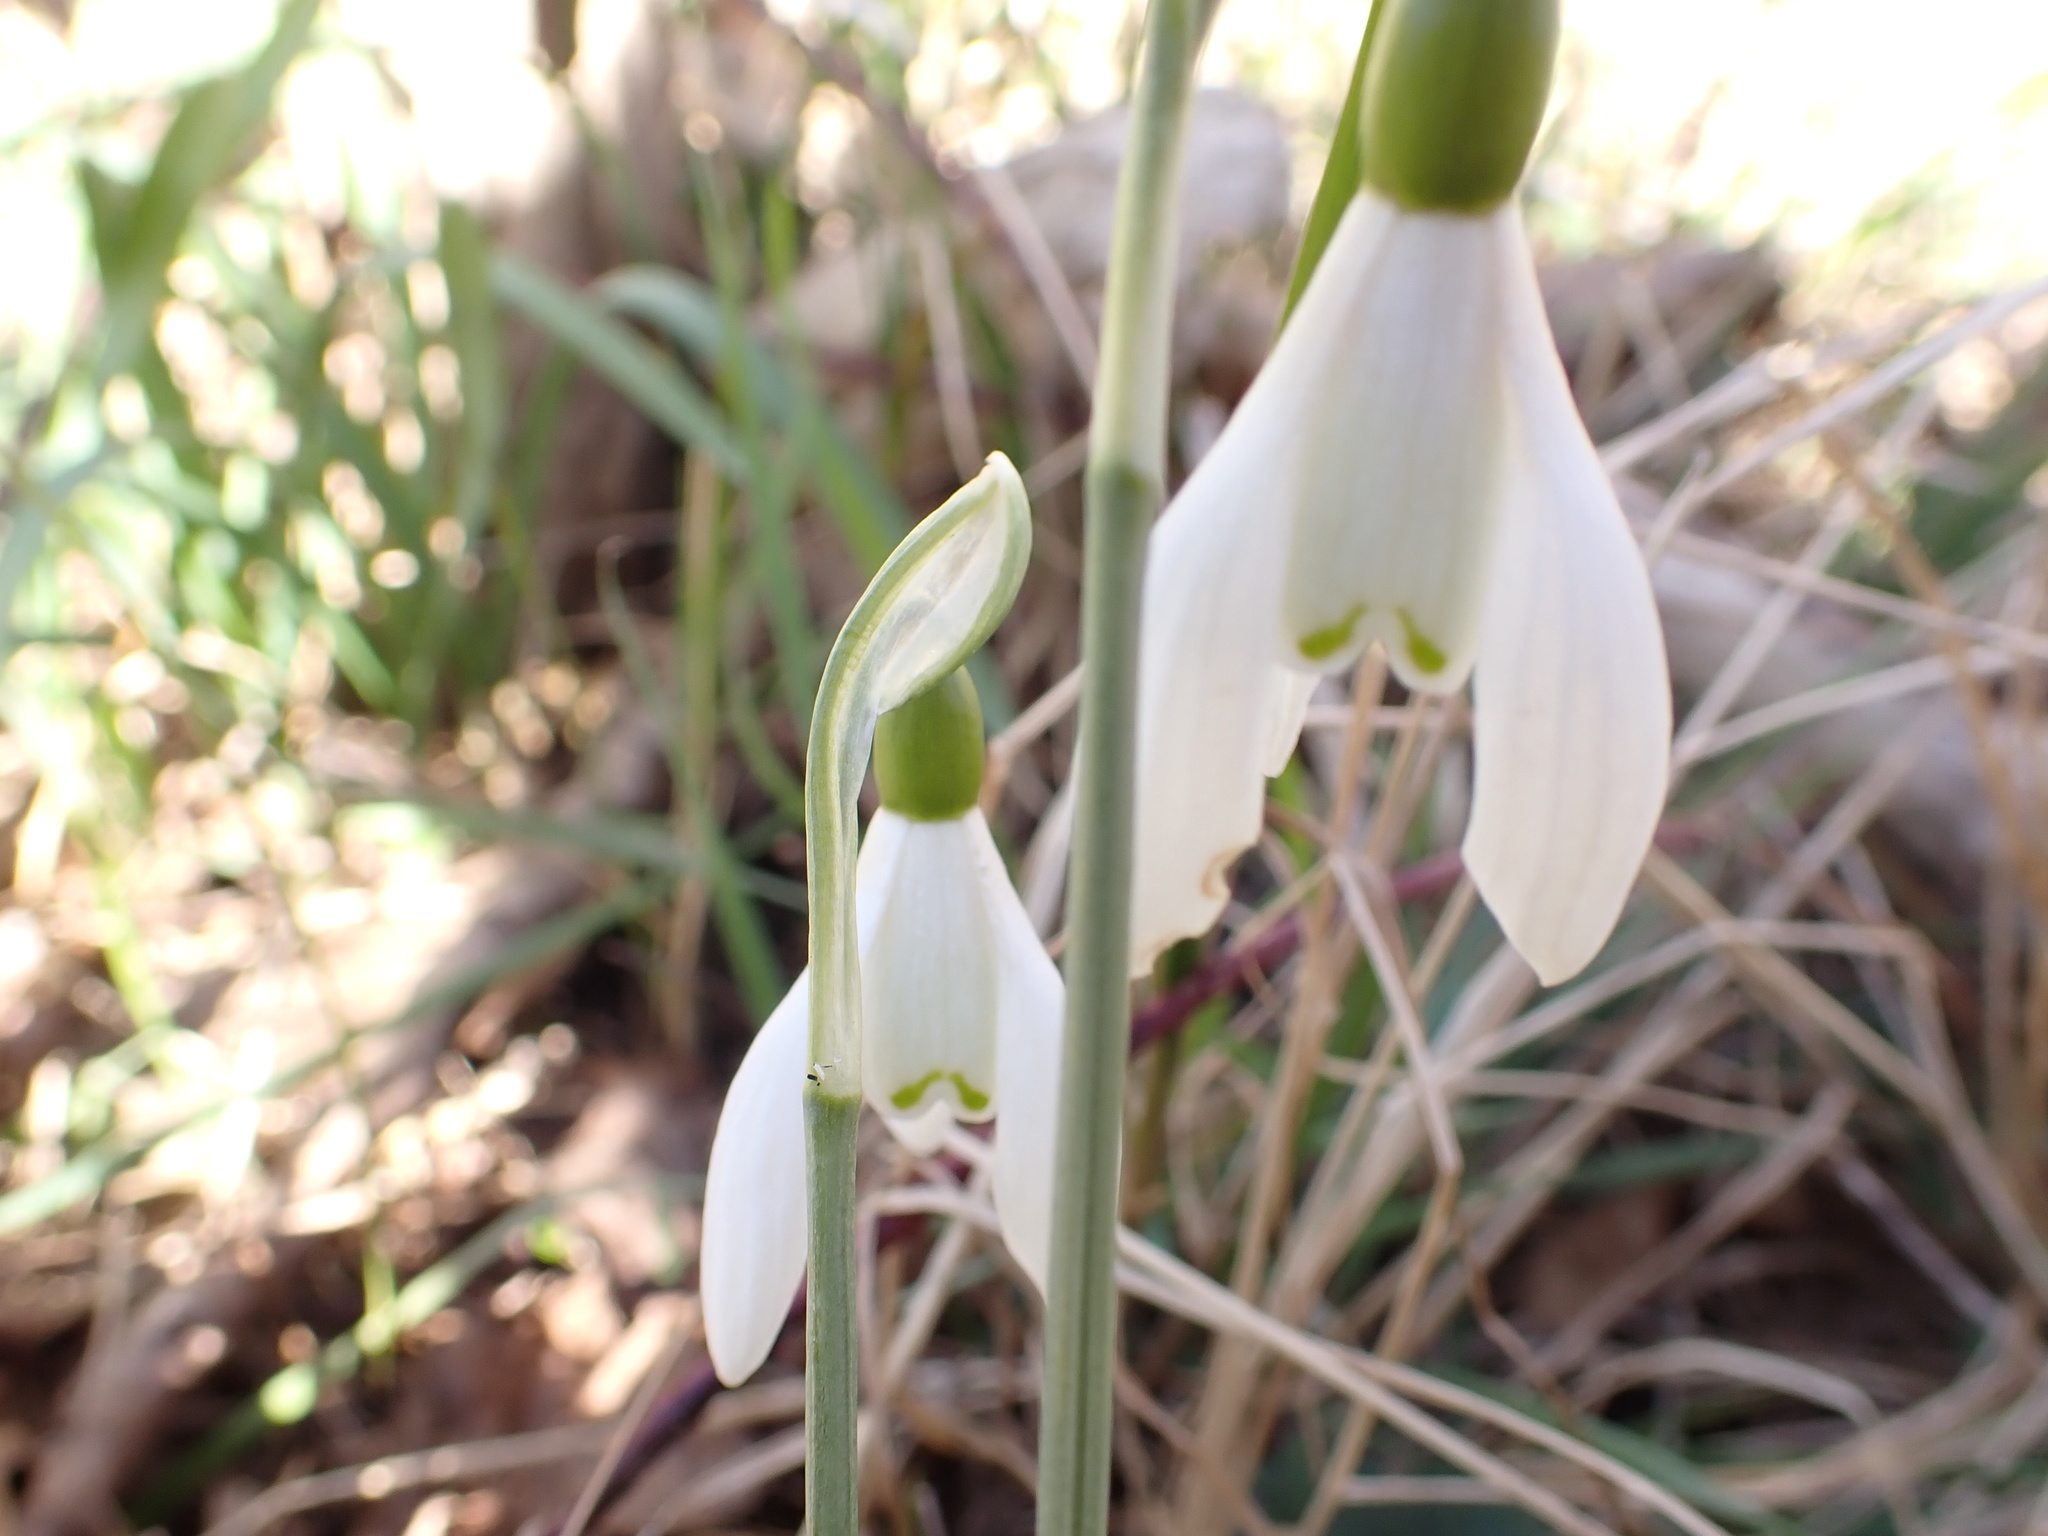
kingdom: Plantae
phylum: Tracheophyta
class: Liliopsida
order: Asparagales
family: Amaryllidaceae
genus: Galanthus
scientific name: Galanthus nivalis
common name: Snowdrop
